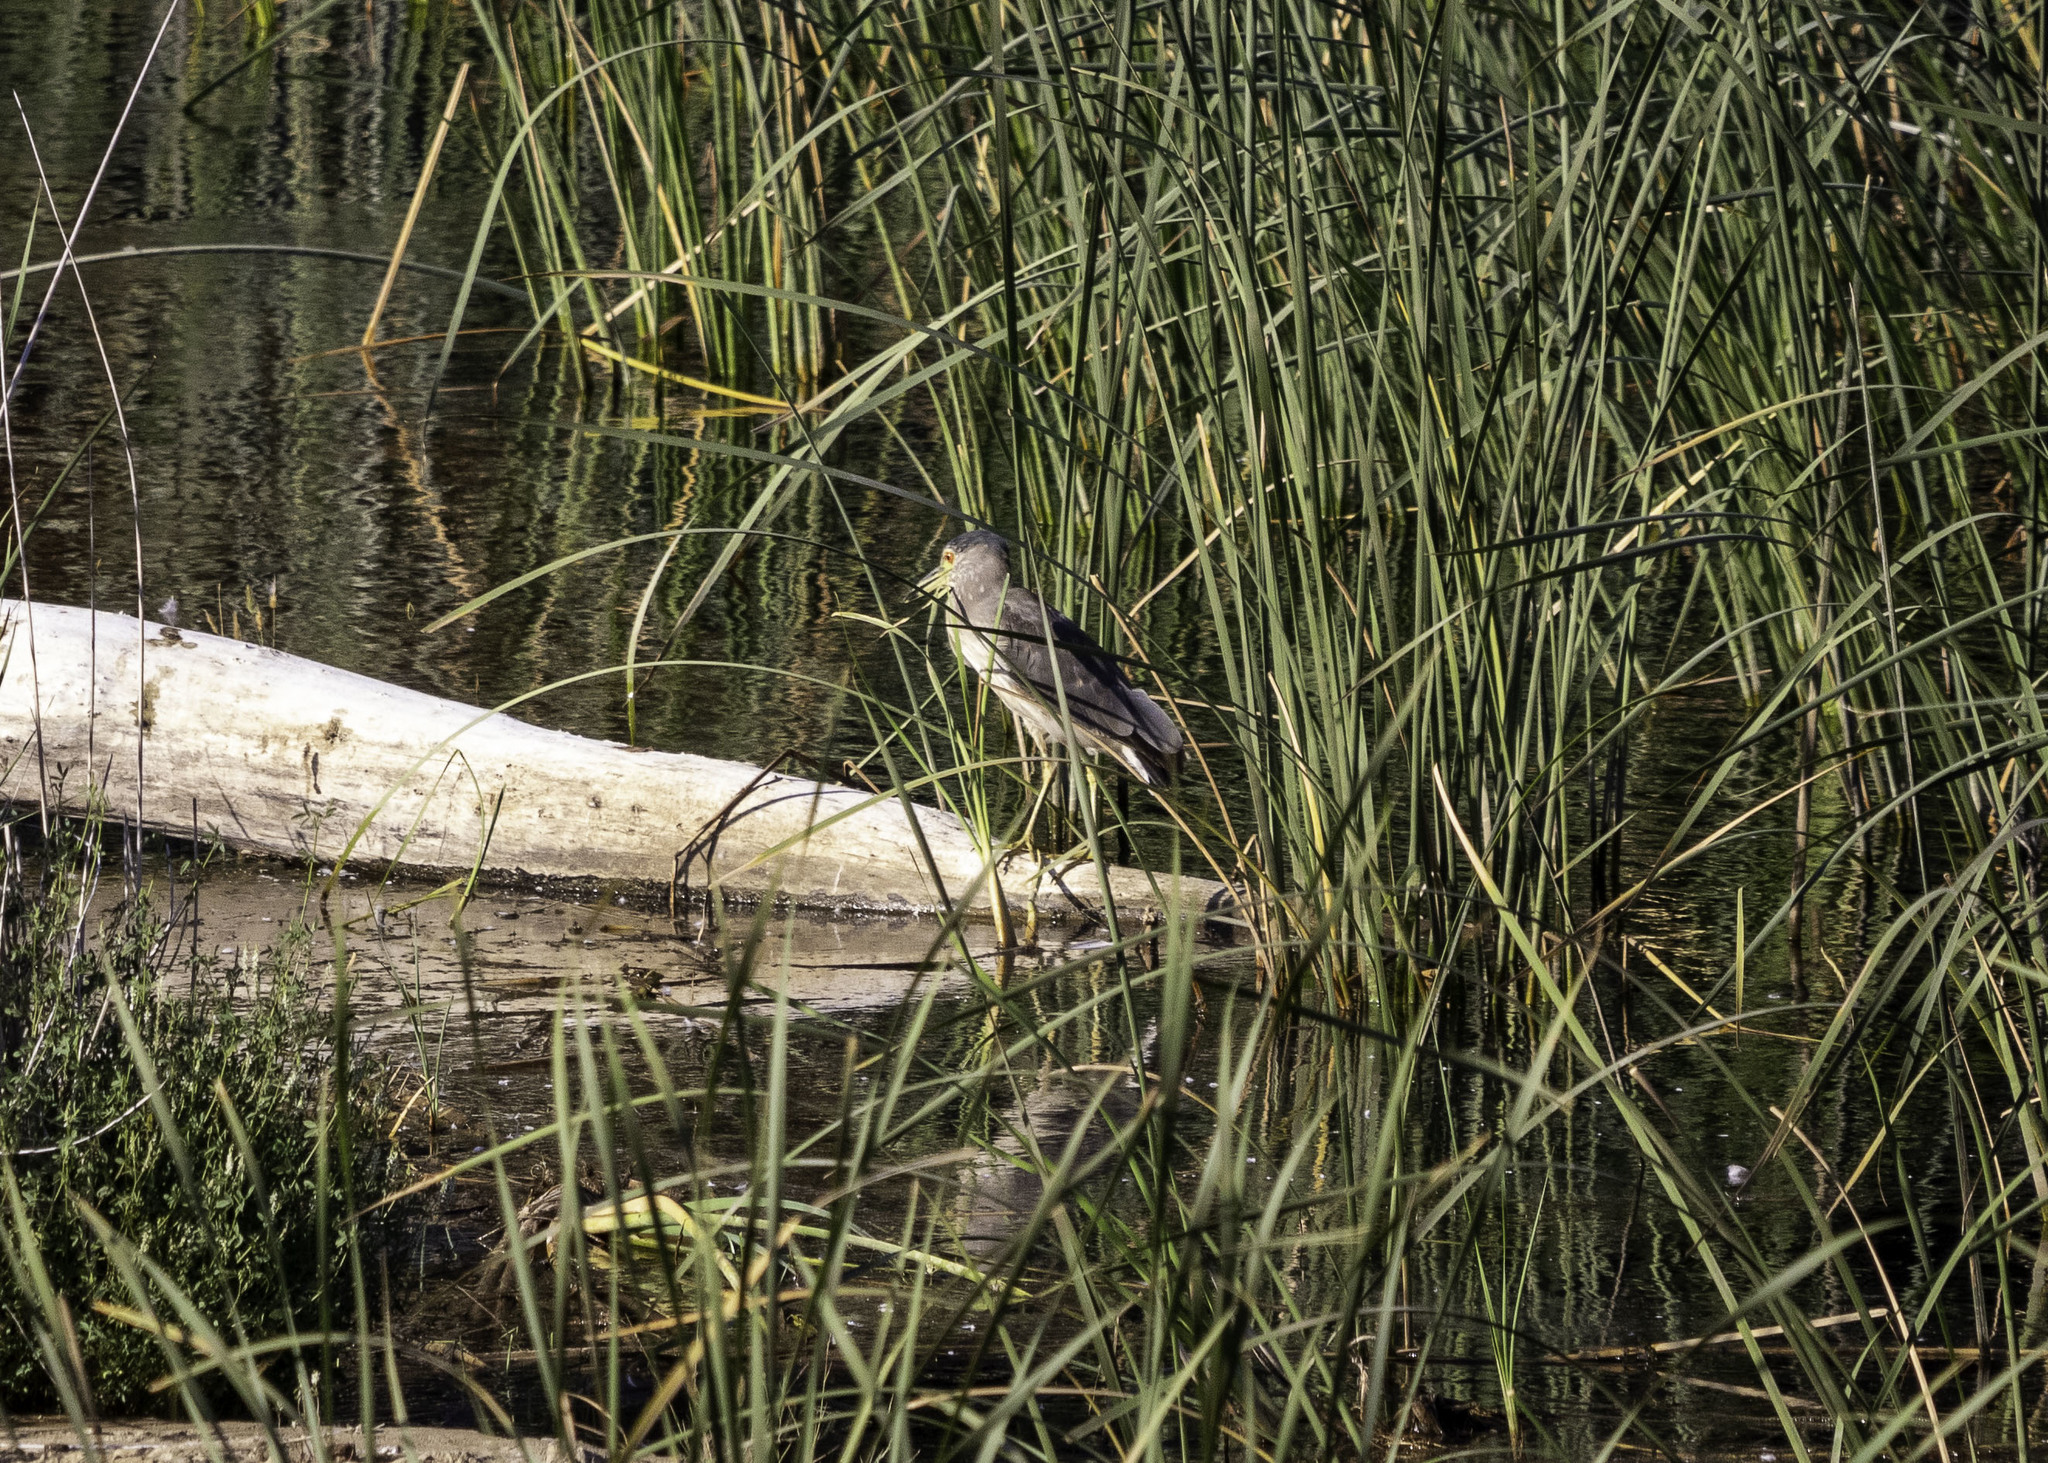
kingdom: Animalia
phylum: Chordata
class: Aves
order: Pelecaniformes
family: Ardeidae
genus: Nycticorax
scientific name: Nycticorax nycticorax
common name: Black-crowned night heron
